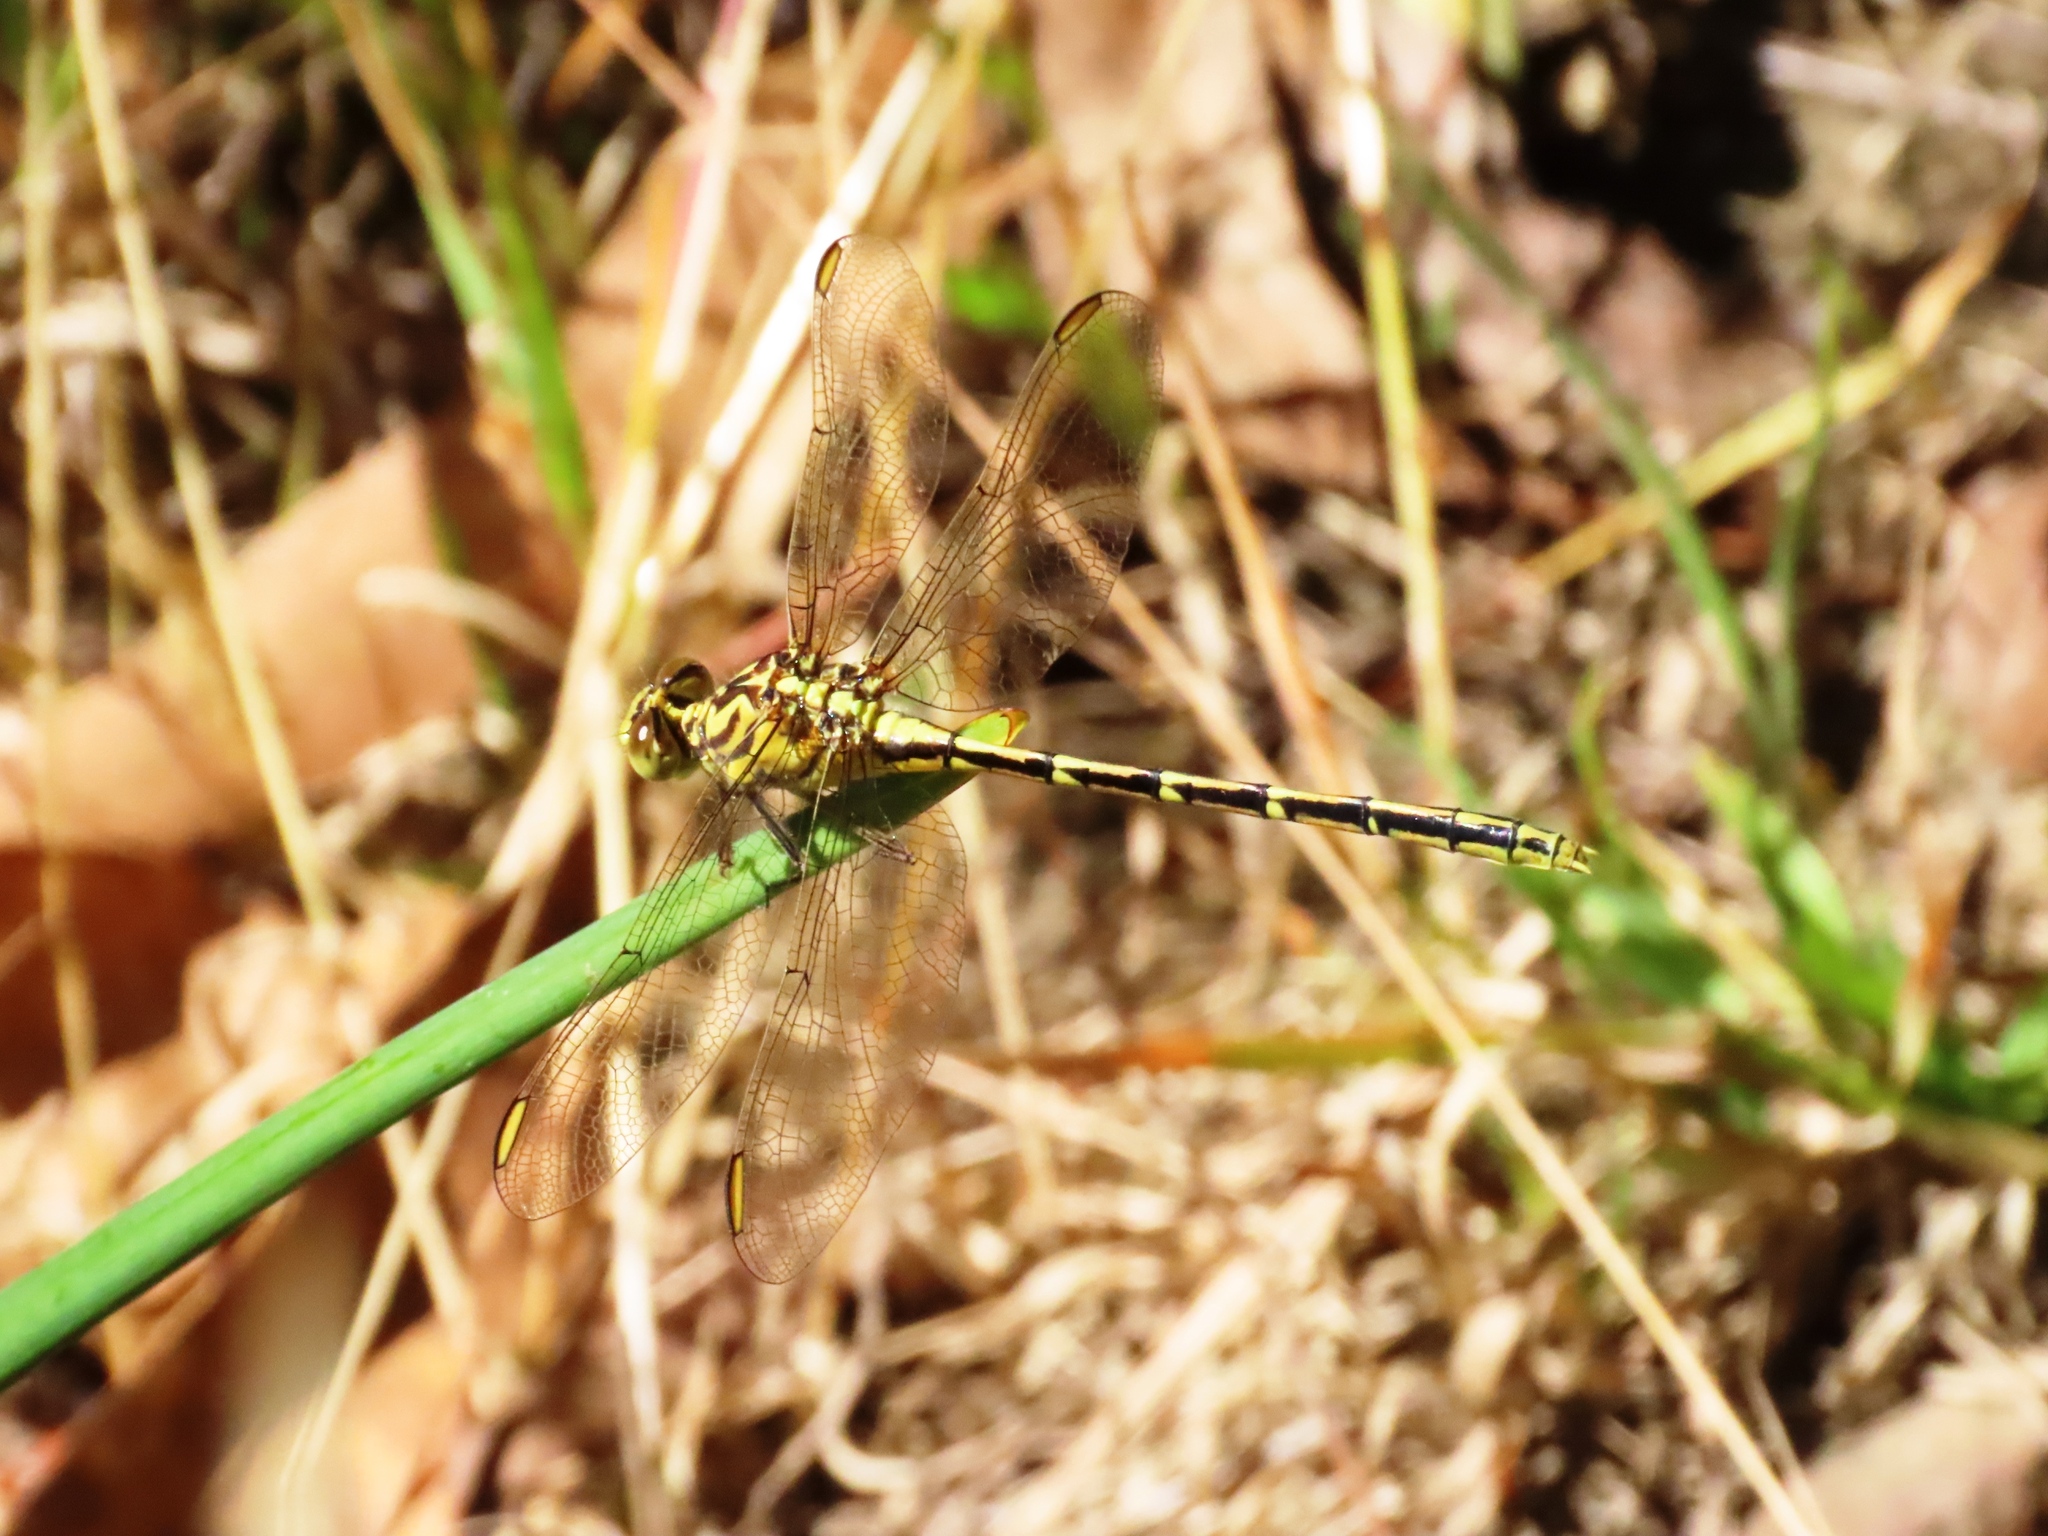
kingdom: Animalia
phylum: Arthropoda
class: Insecta
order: Odonata
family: Gomphidae
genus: Austrogomphus
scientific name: Austrogomphus guerini
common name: Yellow-striped hunter
